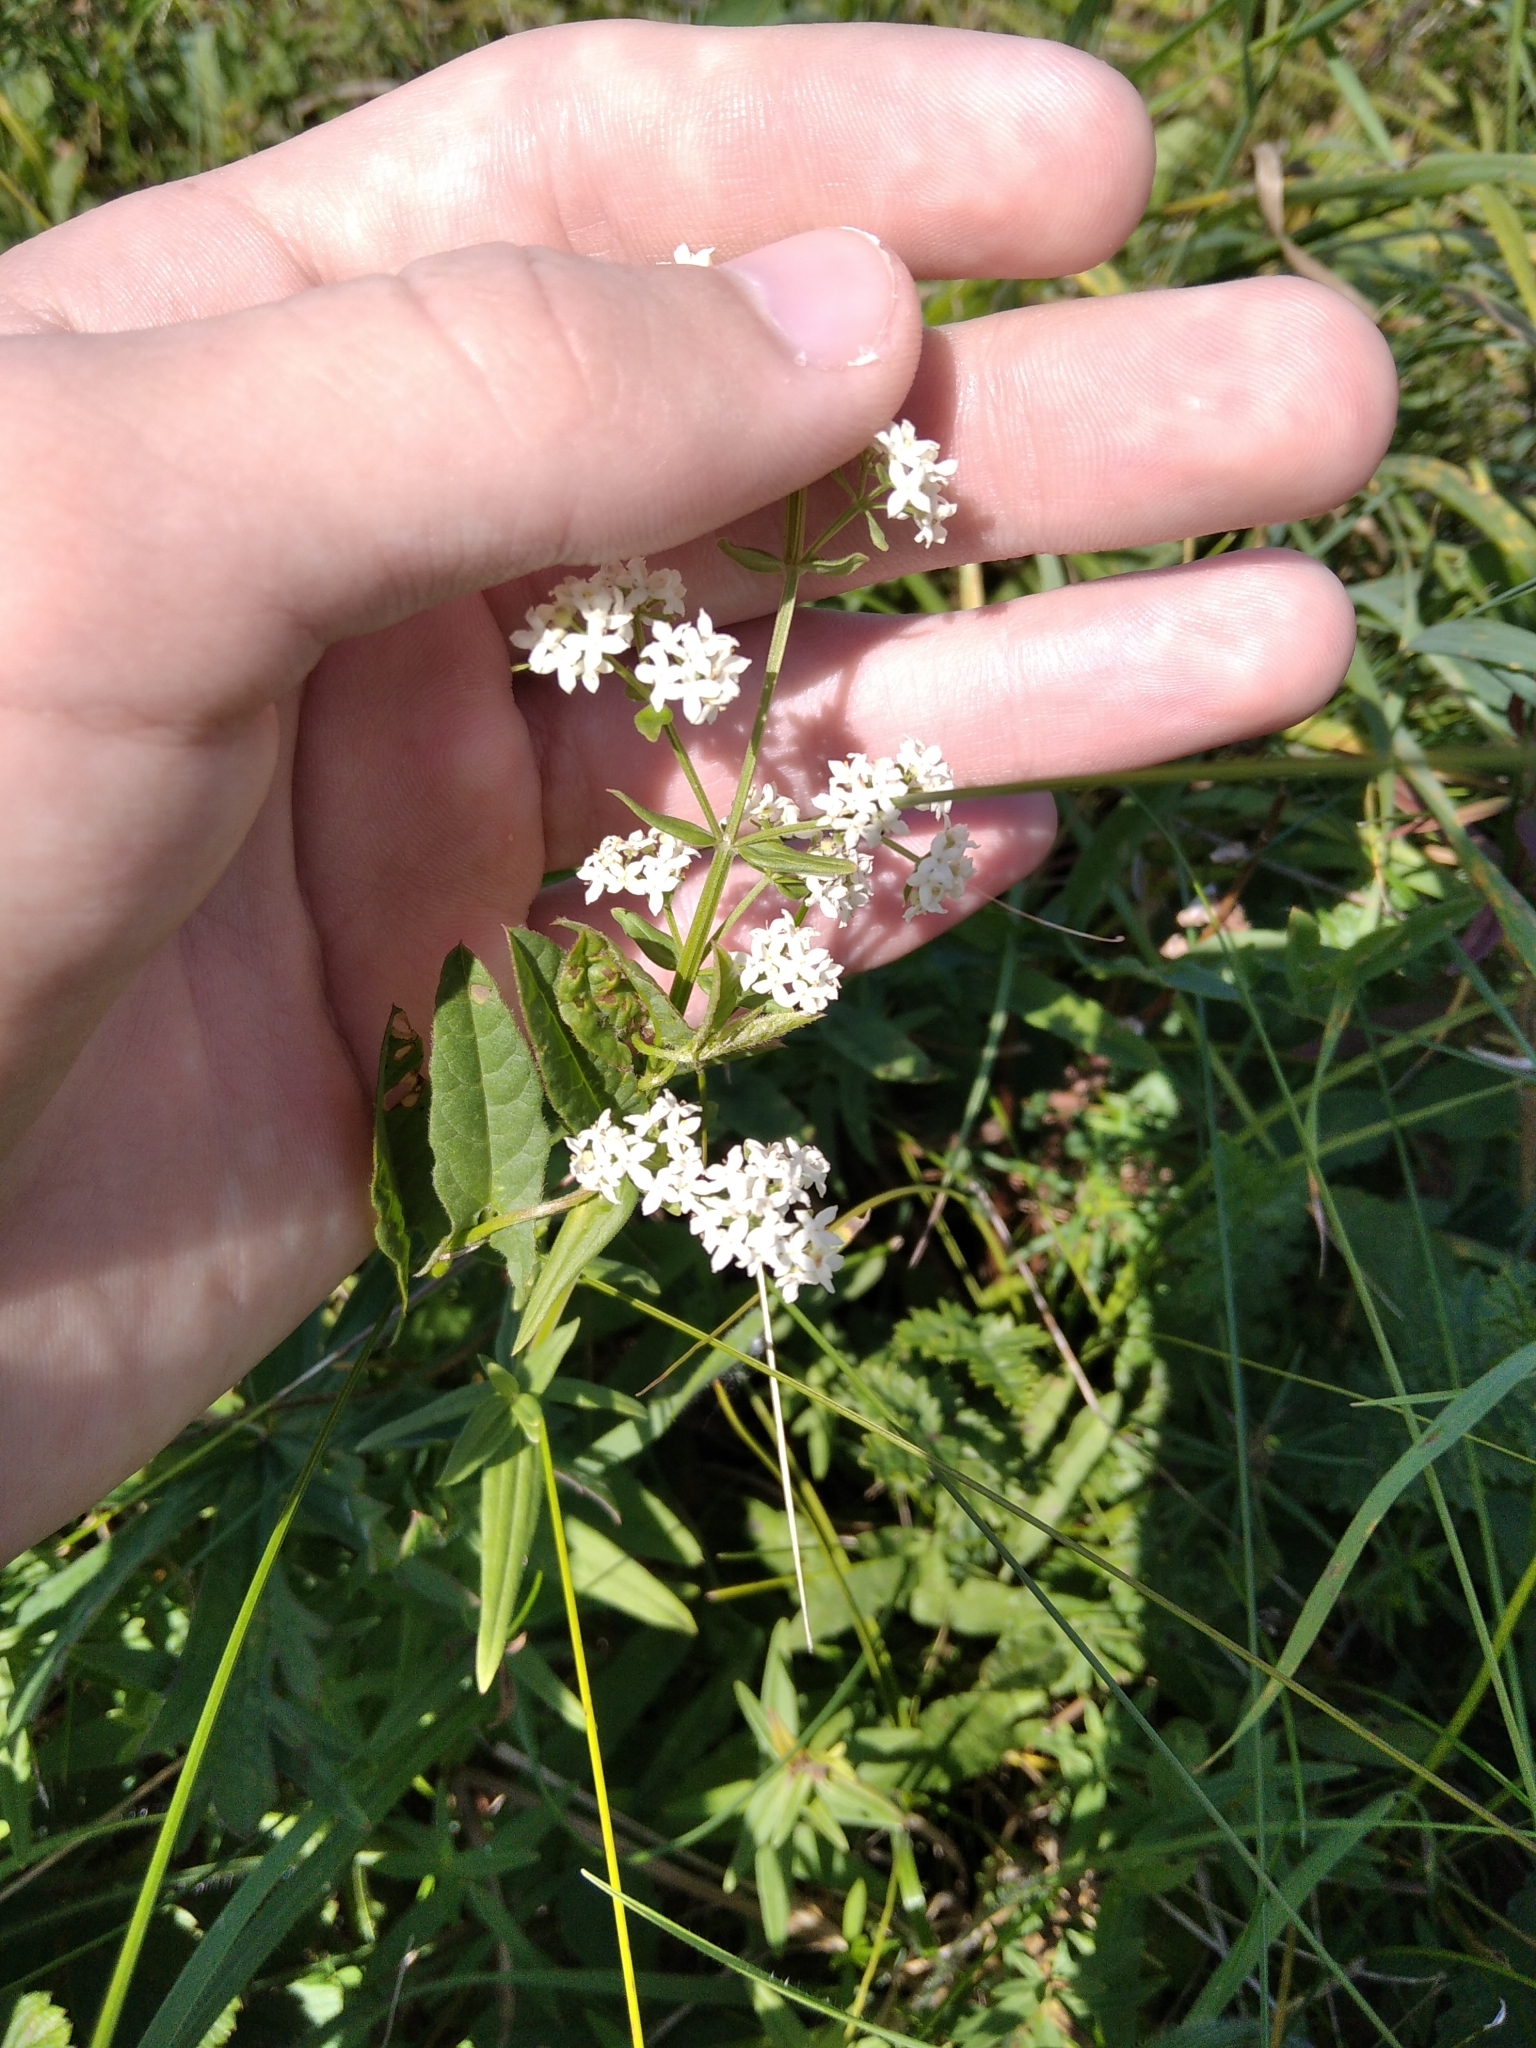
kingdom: Plantae
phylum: Tracheophyta
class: Magnoliopsida
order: Gentianales
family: Rubiaceae
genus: Galium
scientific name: Galium boreale
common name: Northern bedstraw
